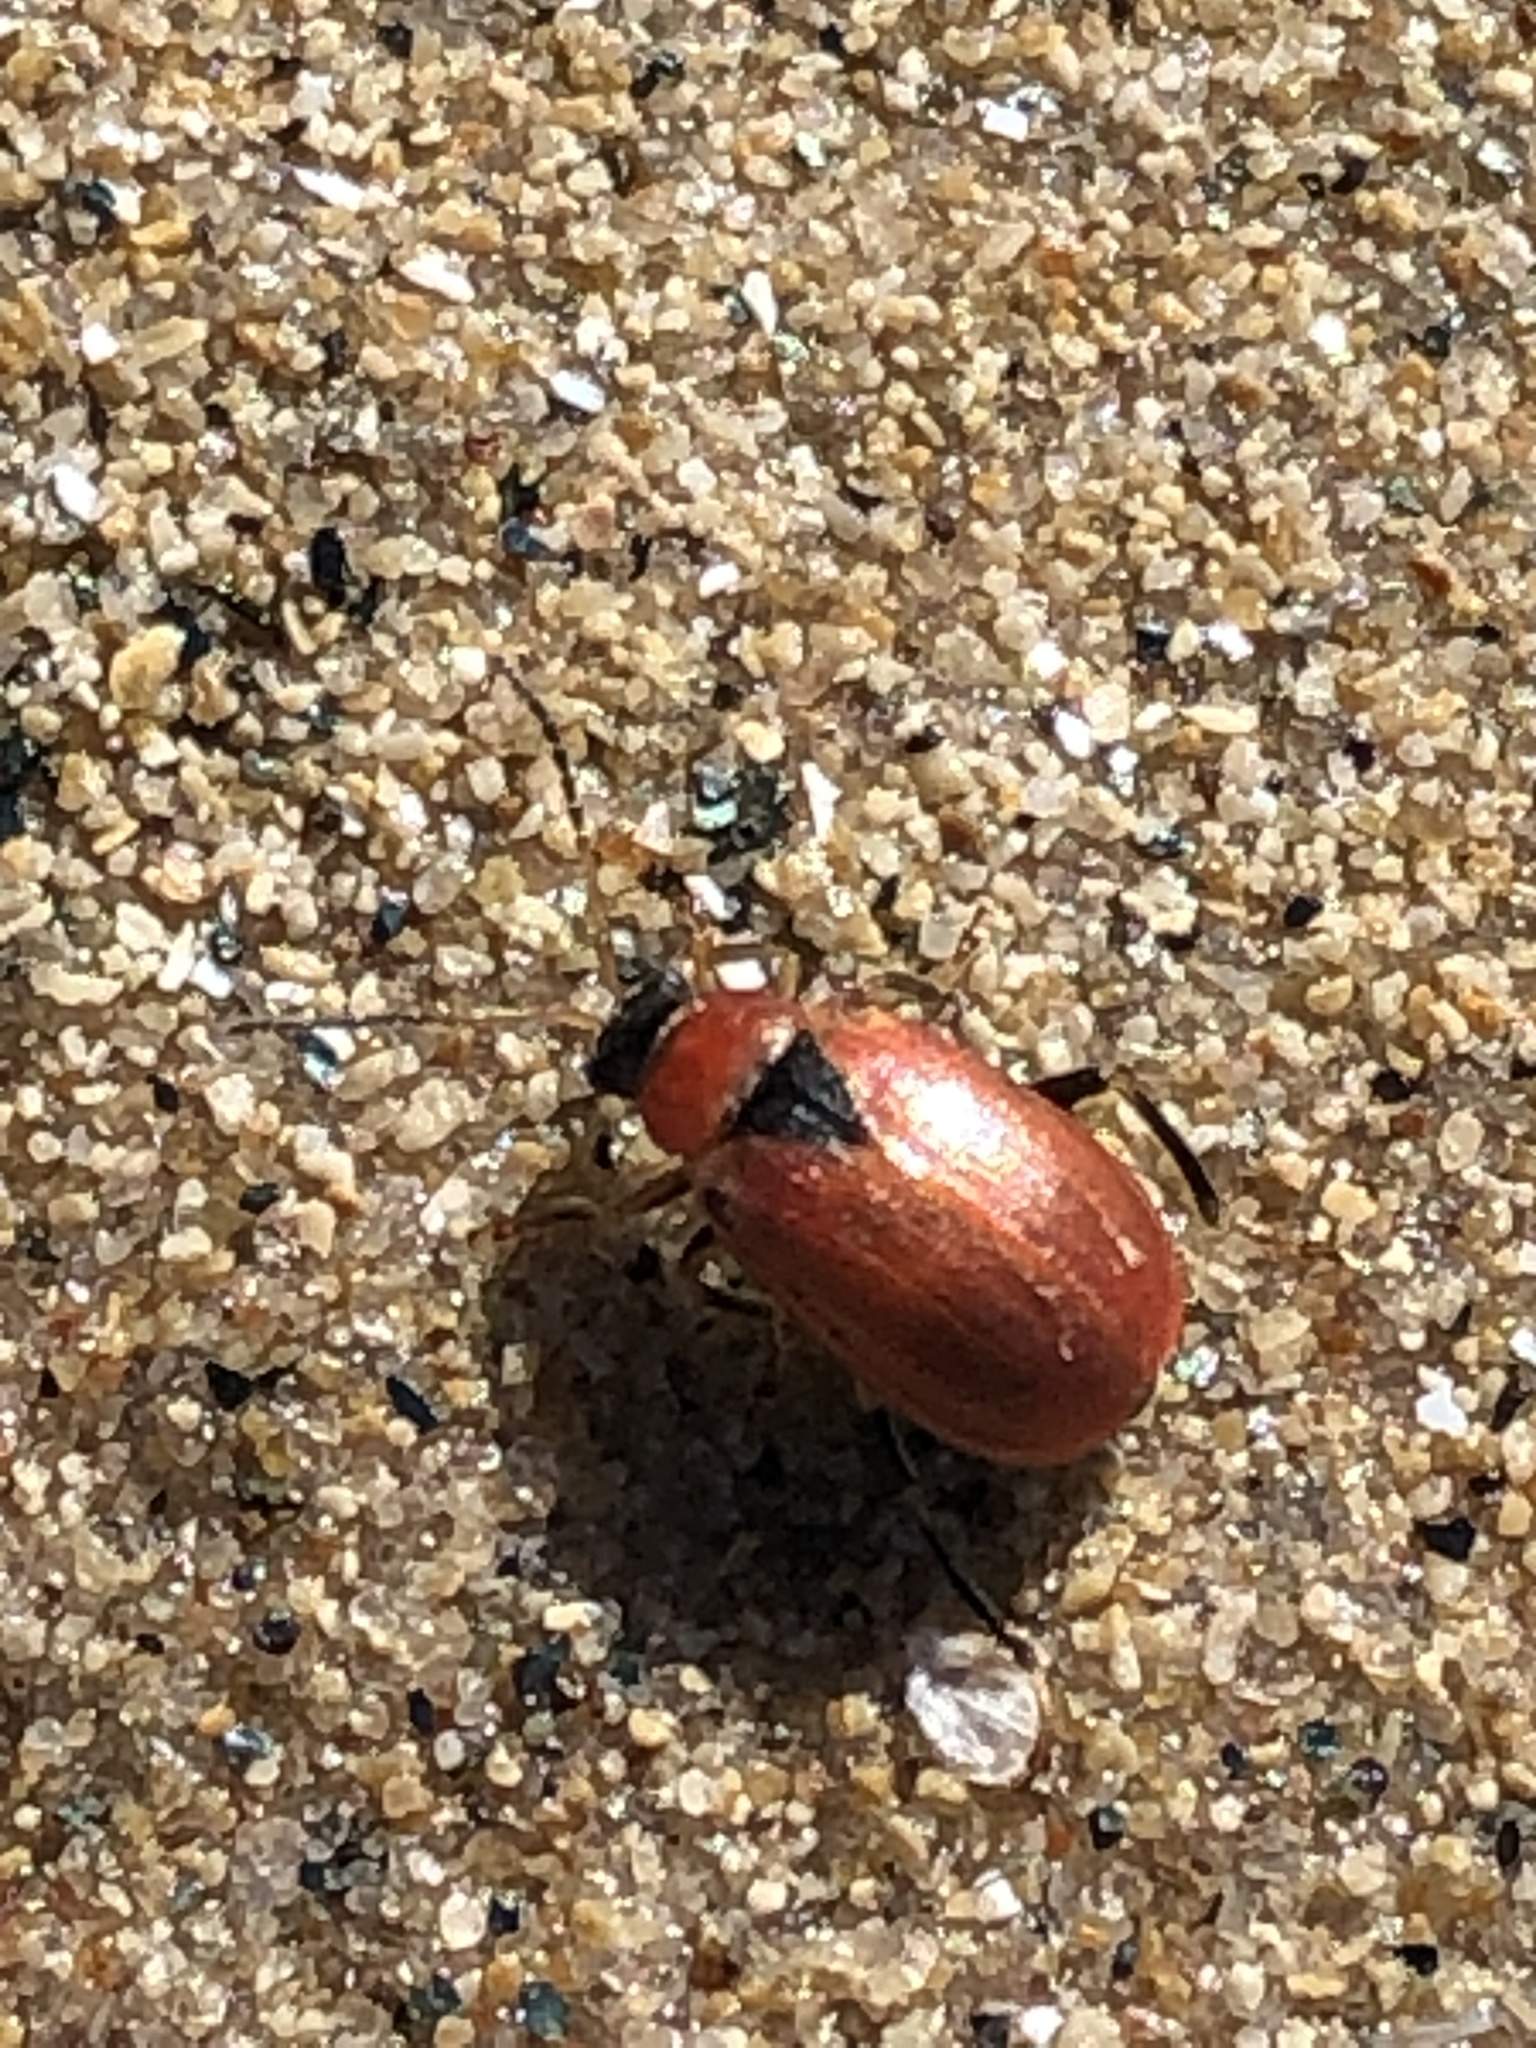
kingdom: Animalia
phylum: Arthropoda
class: Insecta
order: Coleoptera
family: Chrysomelidae
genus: Cerotoma
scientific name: Cerotoma trifurcata
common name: Bean leaf beetle
